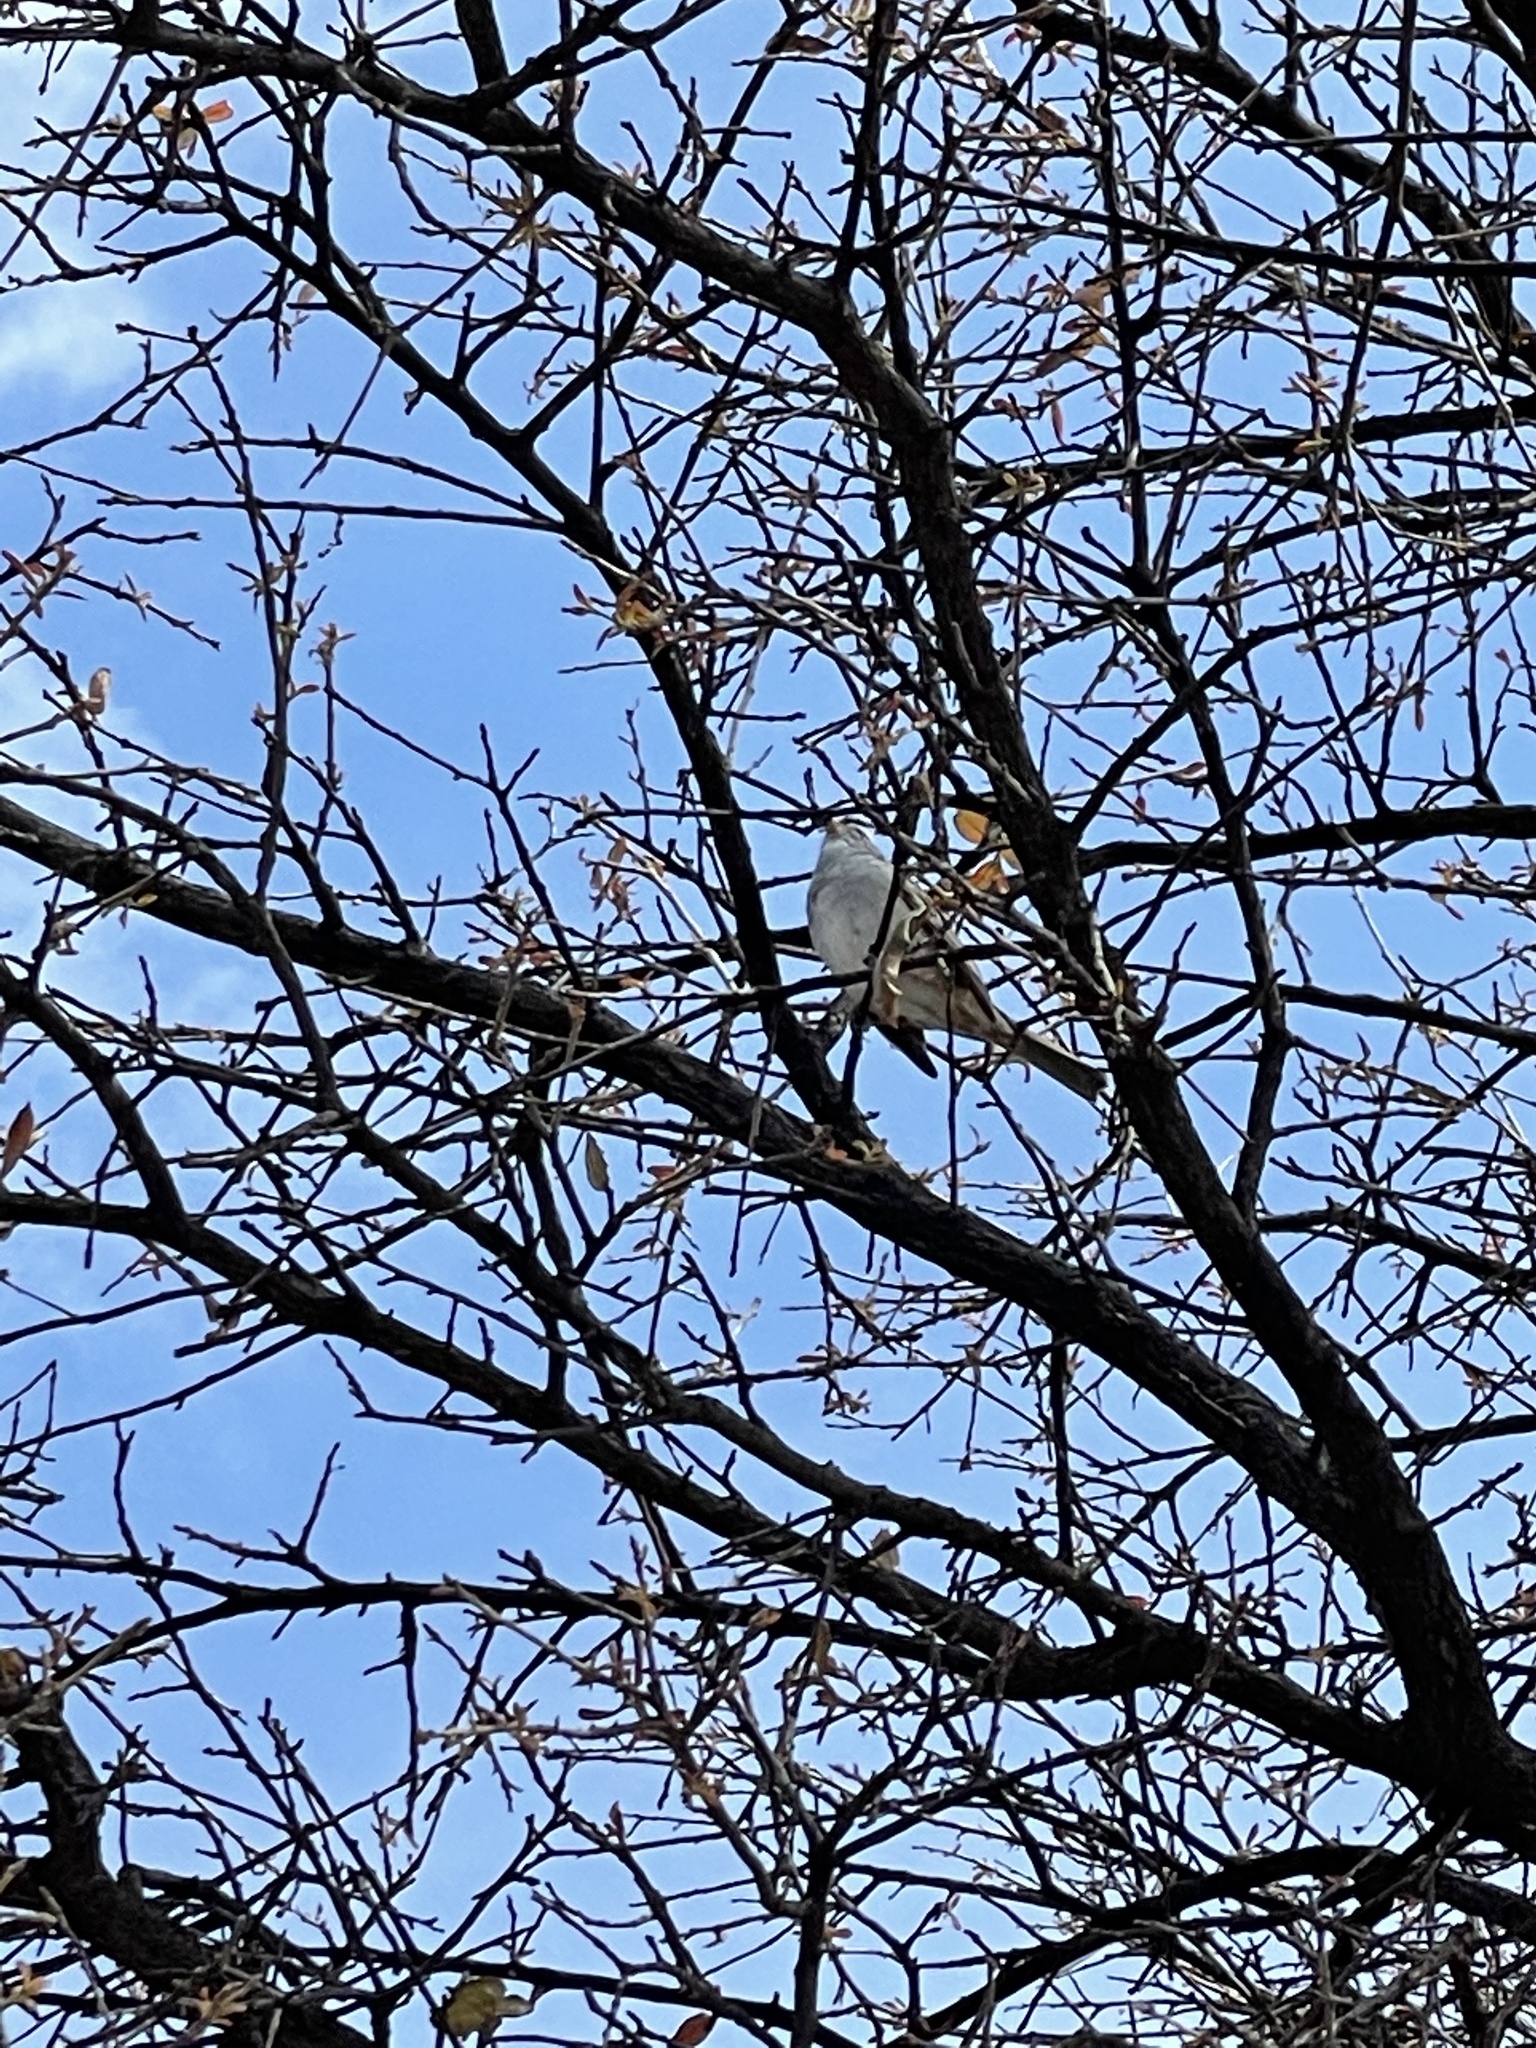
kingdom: Animalia
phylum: Chordata
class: Aves
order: Passeriformes
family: Passerellidae
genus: Zonotrichia
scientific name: Zonotrichia leucophrys
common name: White-crowned sparrow
